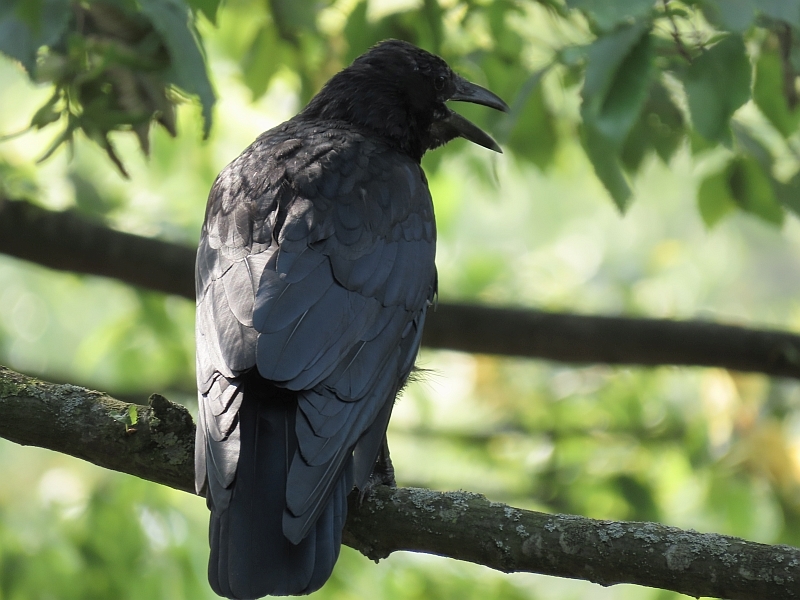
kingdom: Animalia
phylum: Chordata
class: Aves
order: Passeriformes
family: Corvidae
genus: Corvus
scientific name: Corvus corone
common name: Carrion crow
